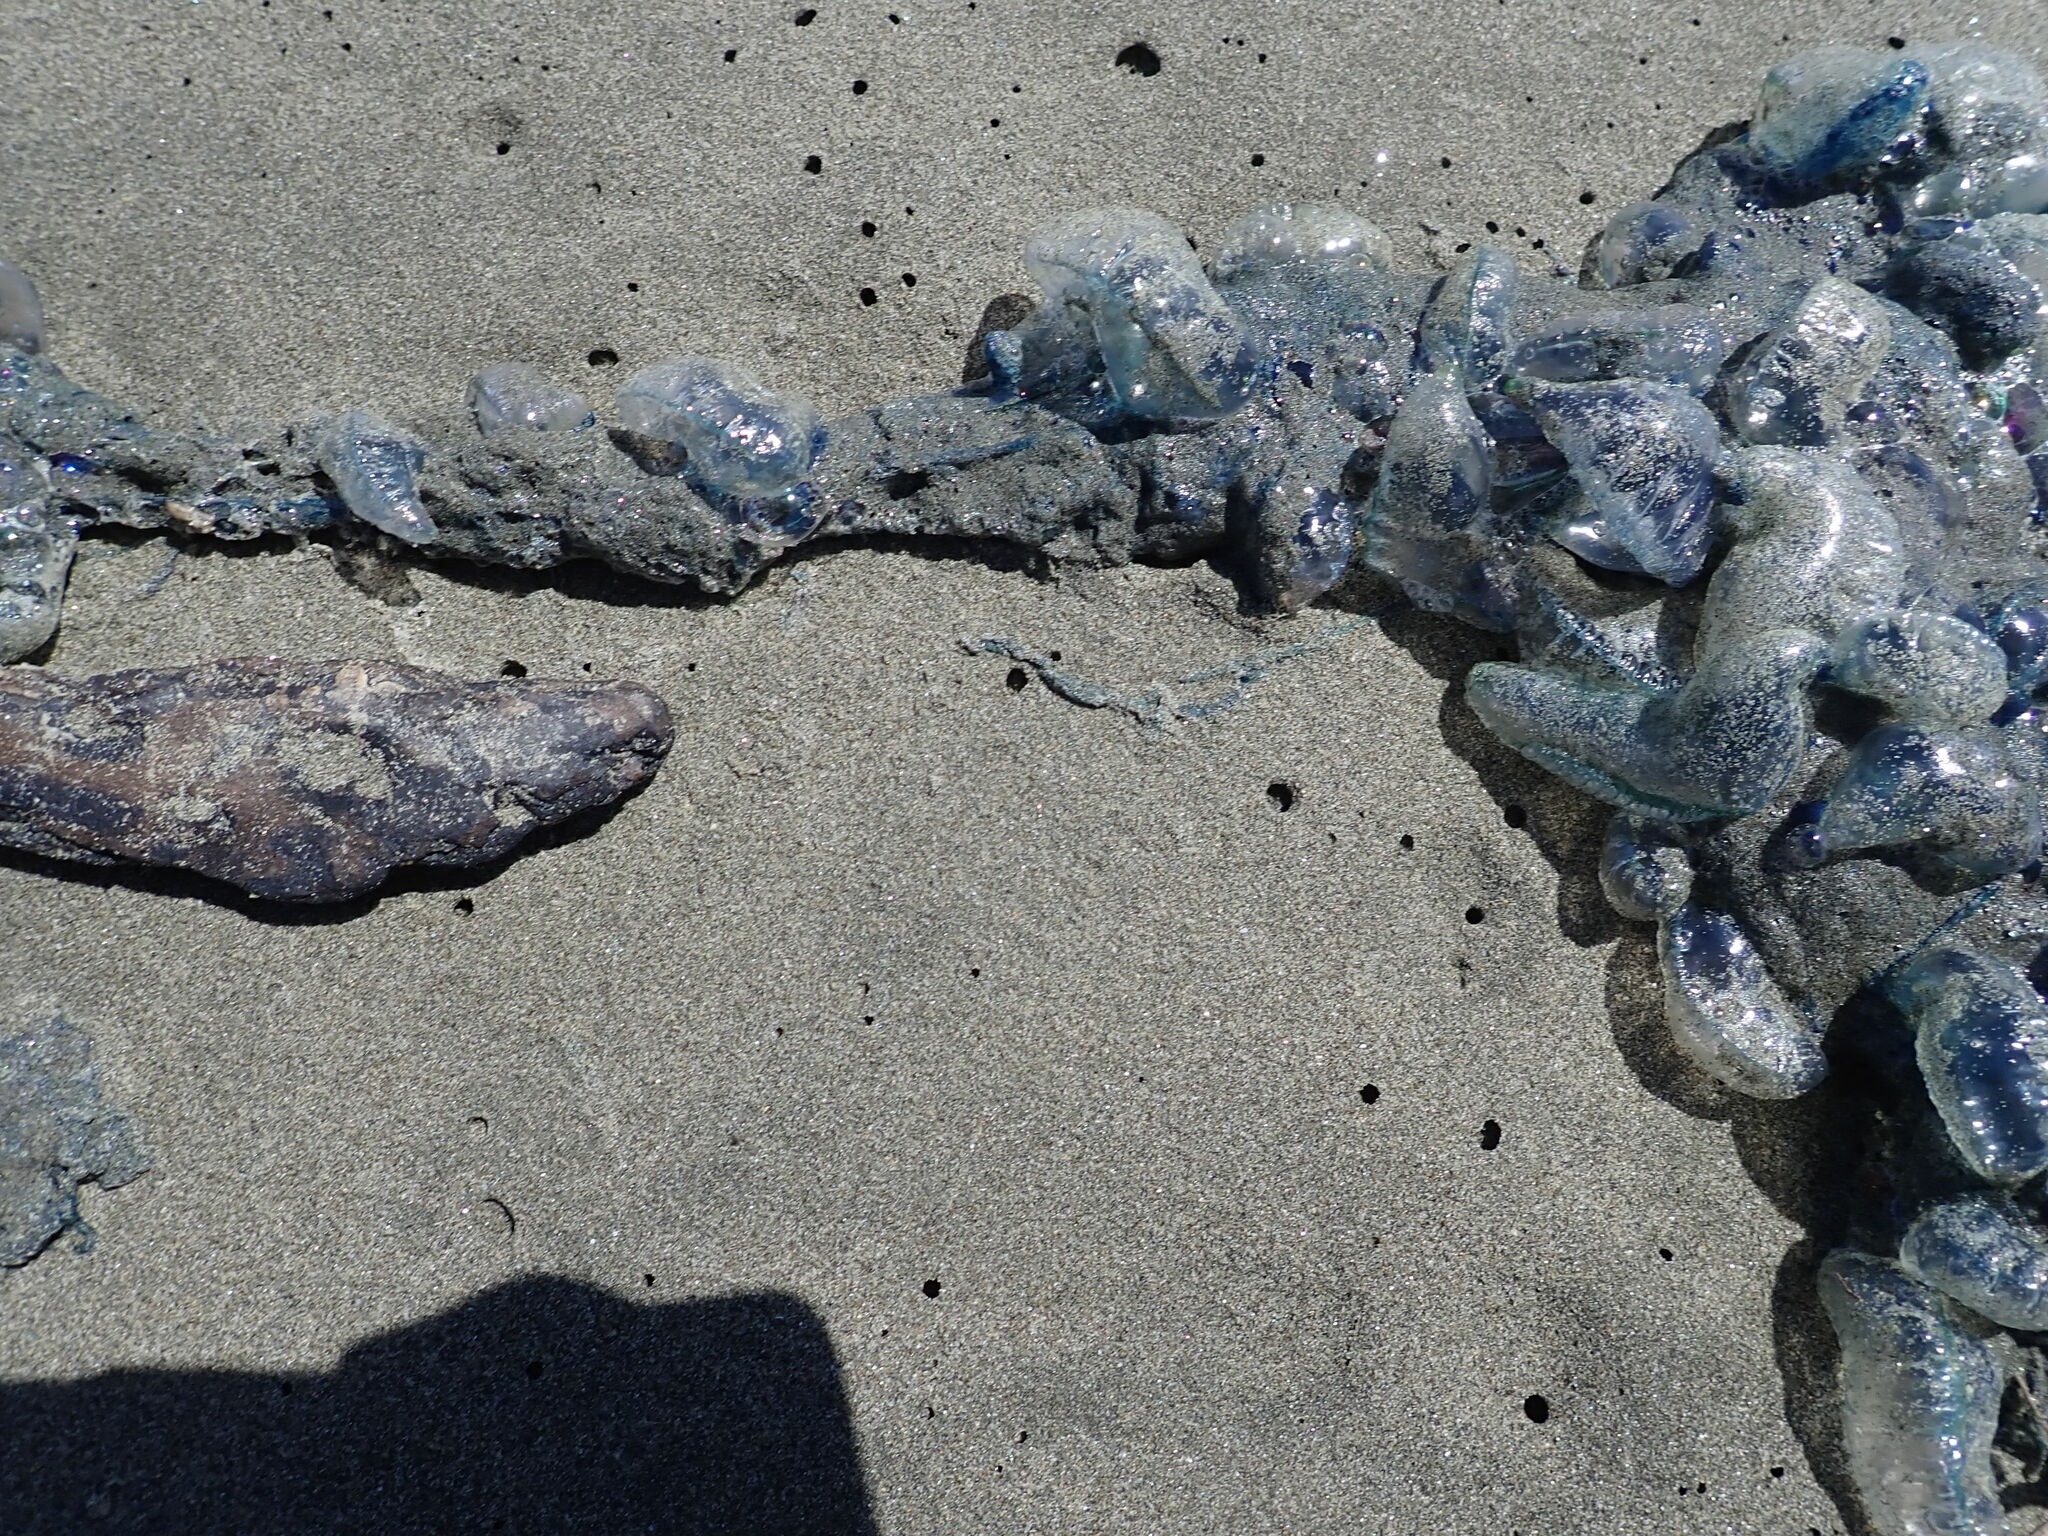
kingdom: Animalia
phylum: Cnidaria
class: Hydrozoa
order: Siphonophorae
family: Physaliidae
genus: Physalia
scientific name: Physalia physalis
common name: Portuguese man-of-war
